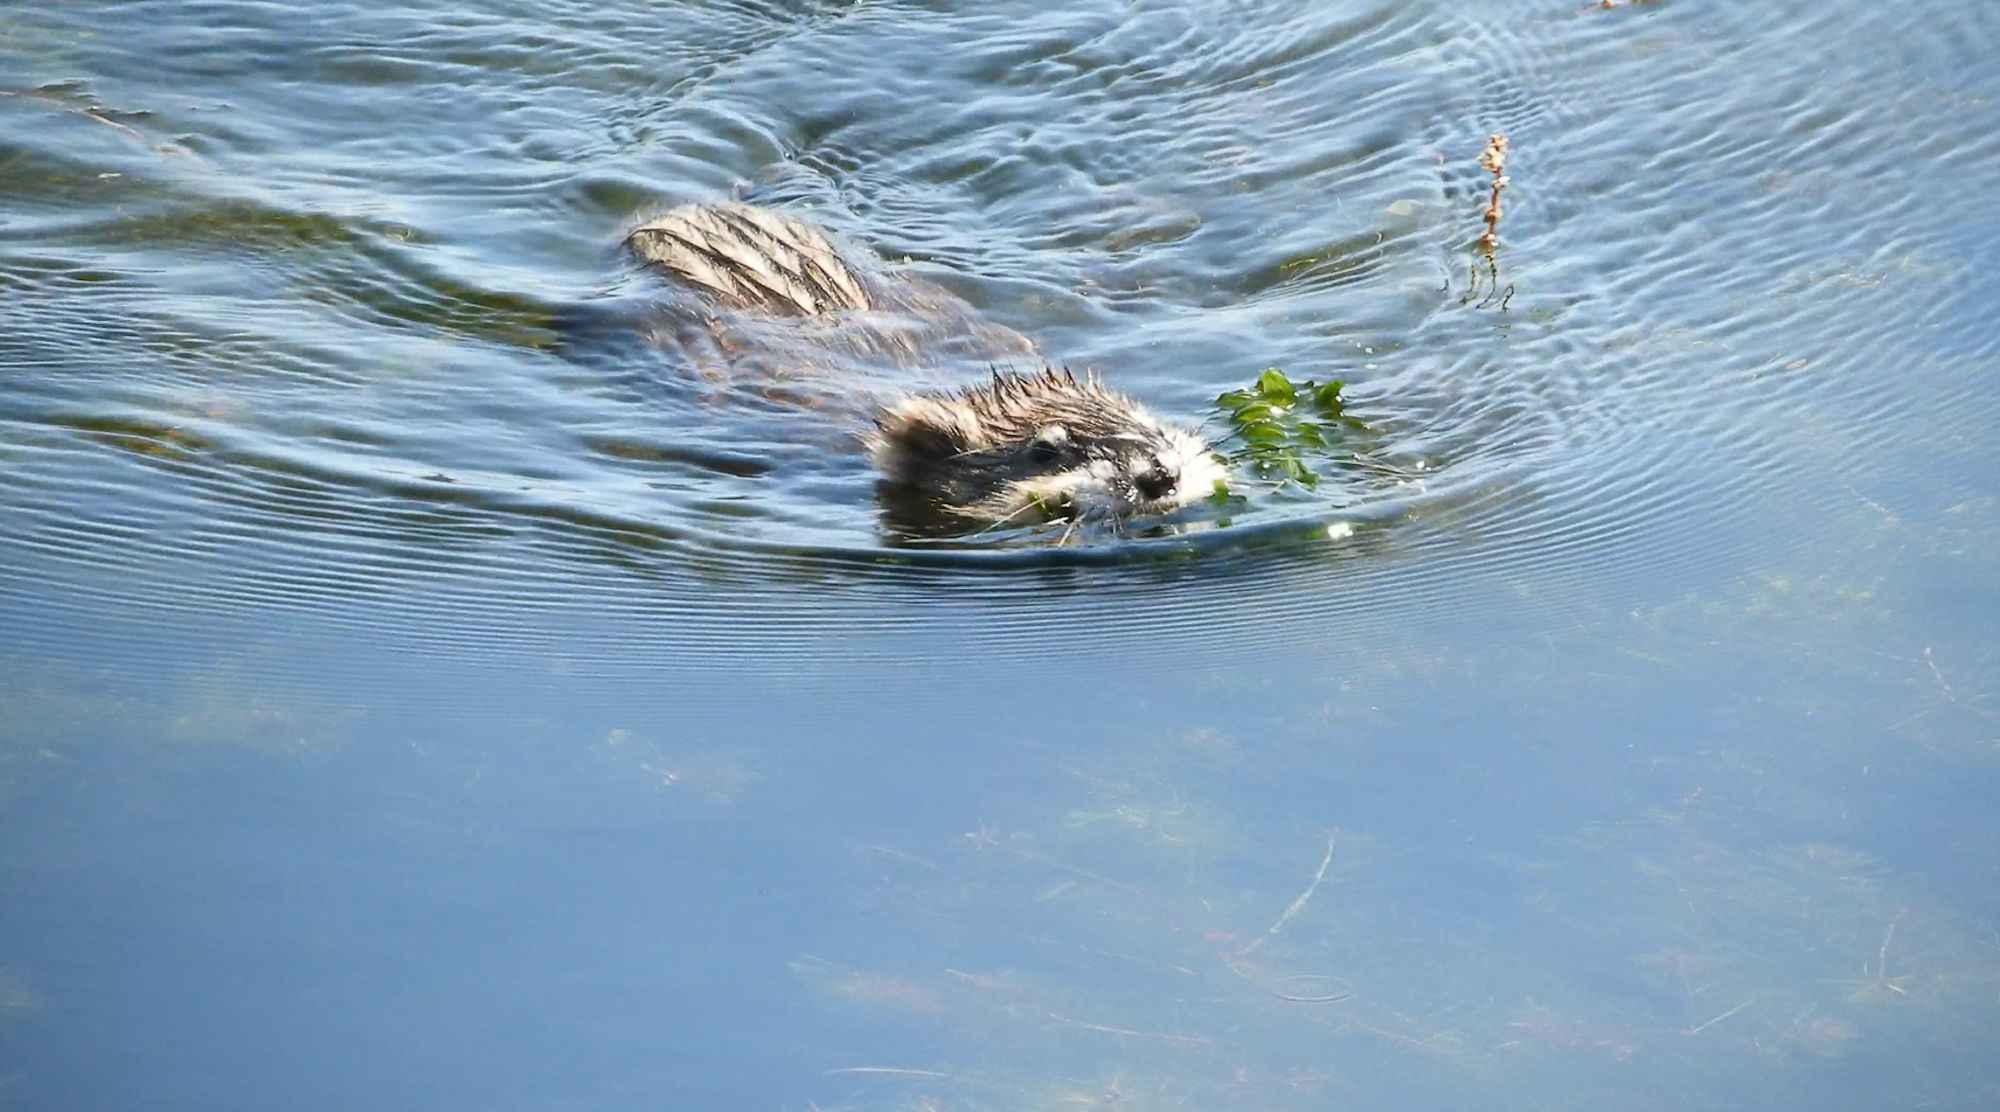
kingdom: Animalia
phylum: Chordata
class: Mammalia
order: Rodentia
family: Cricetidae
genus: Ondatra
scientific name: Ondatra zibethicus
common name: Muskrat
